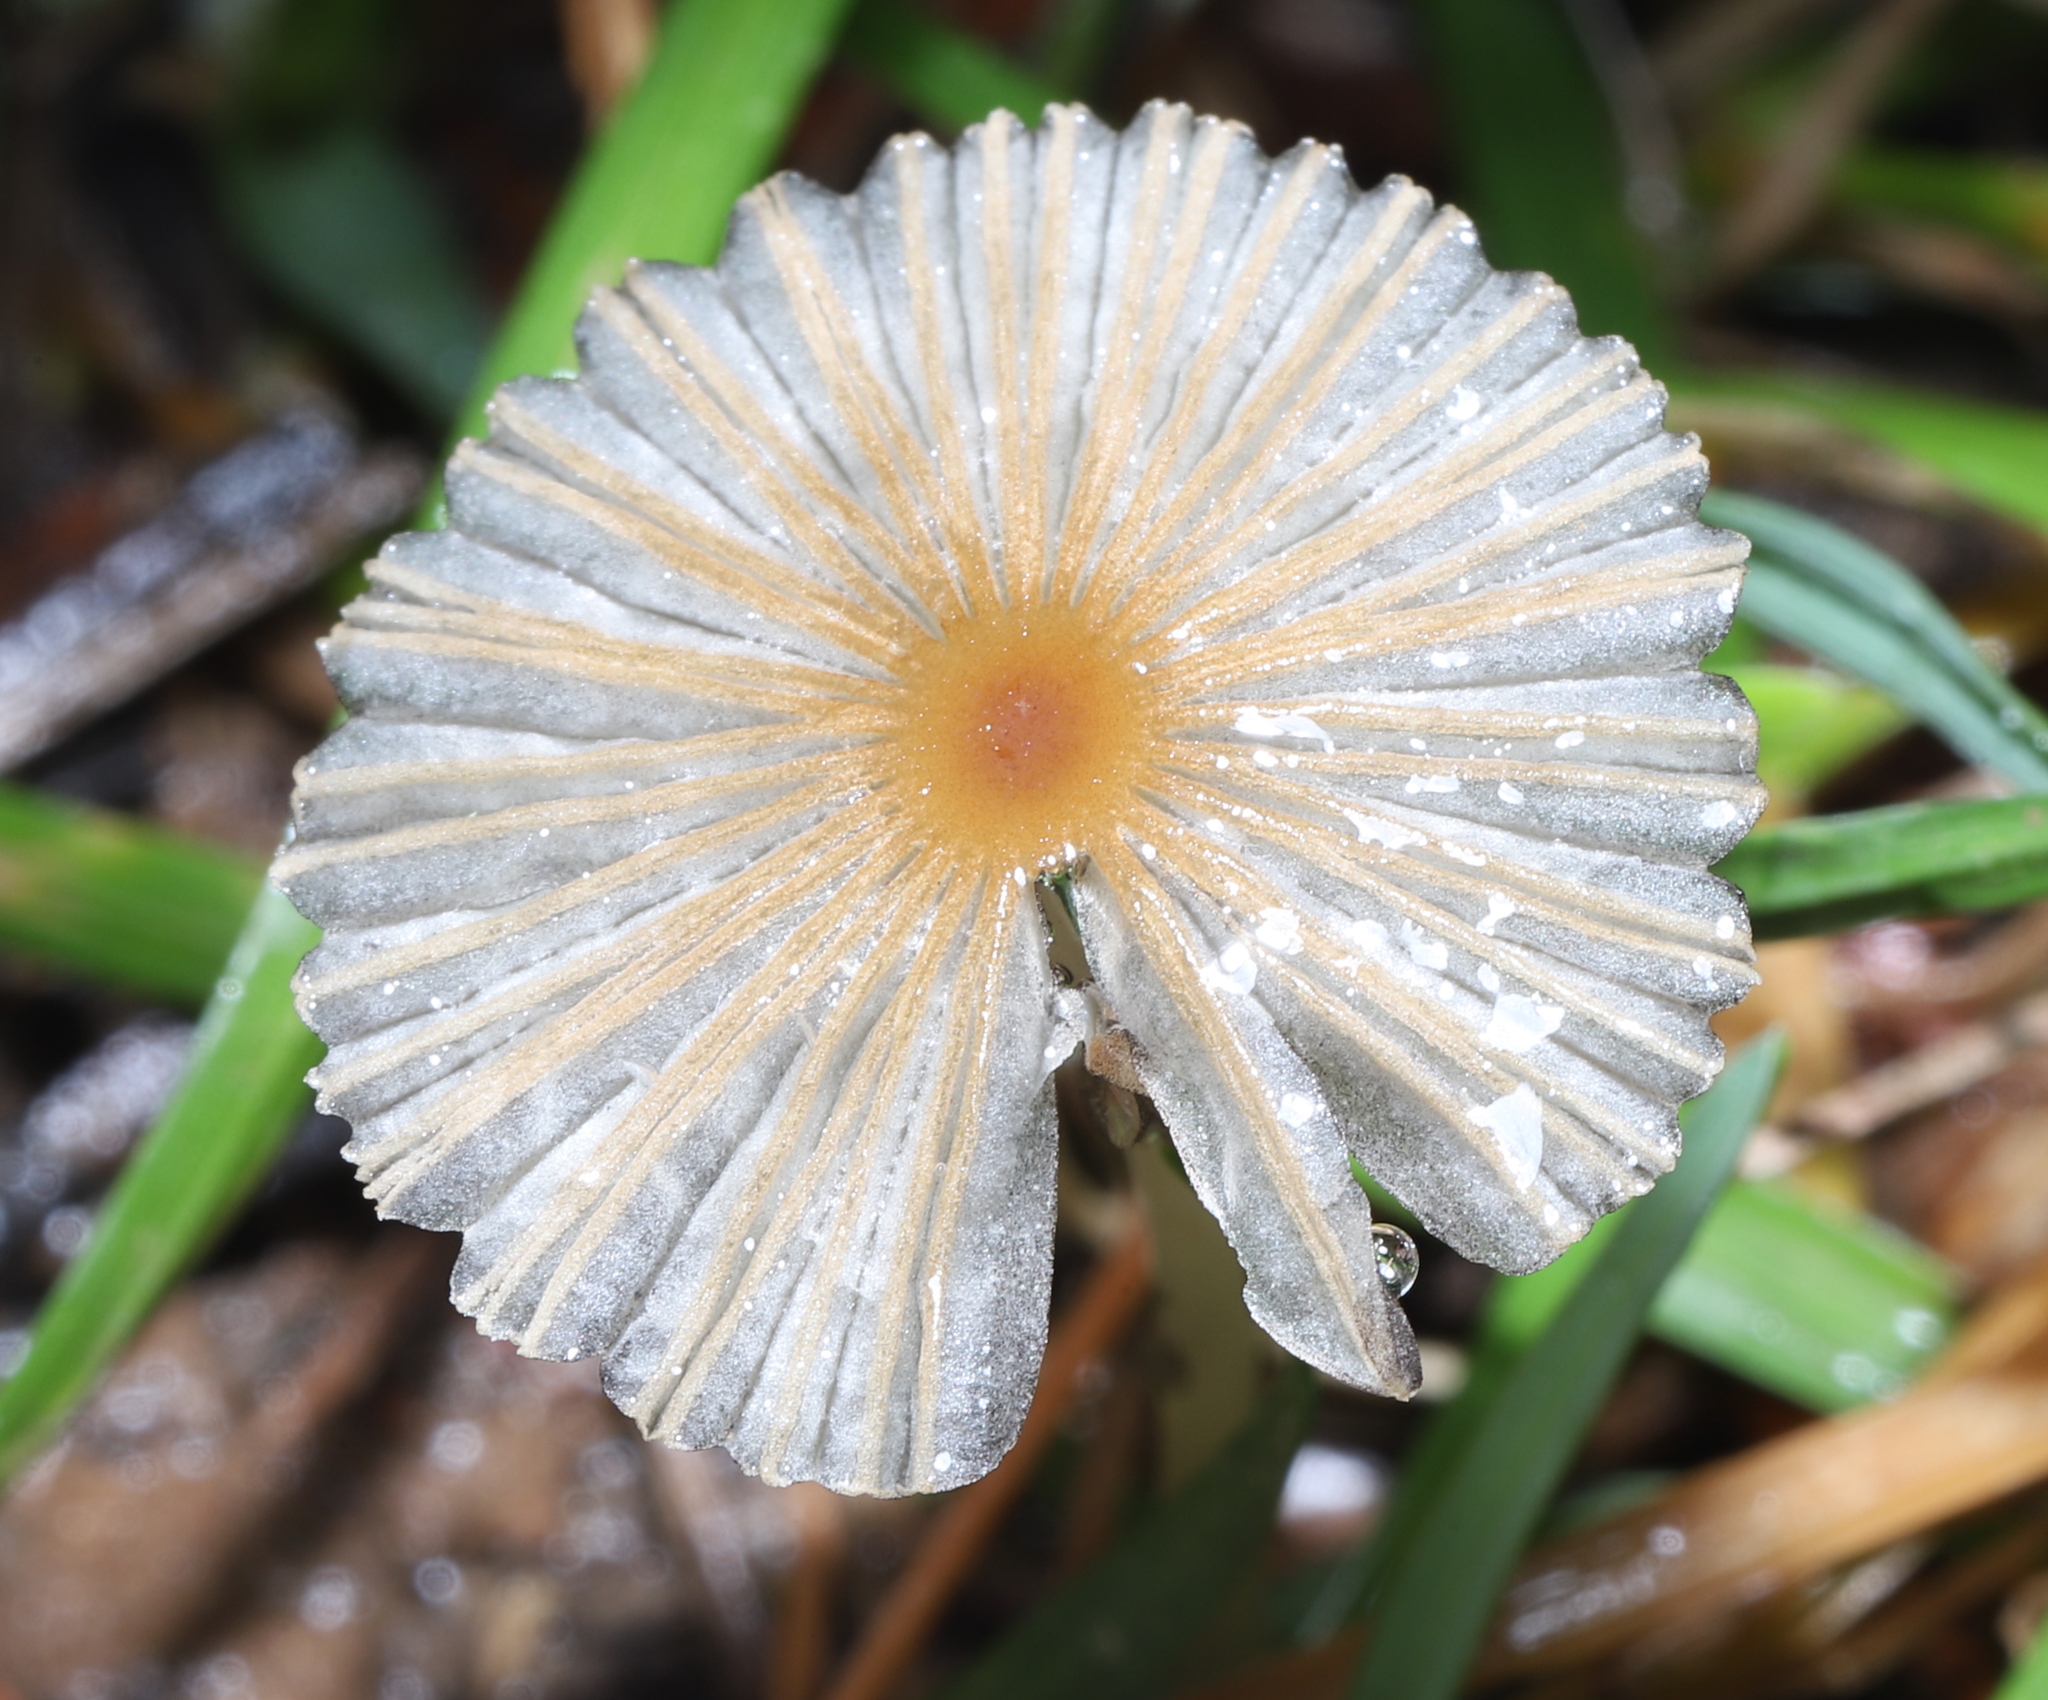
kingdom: Fungi
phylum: Basidiomycota
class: Agaricomycetes
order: Agaricales
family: Psathyrellaceae
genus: Parasola
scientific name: Parasola plicatilis
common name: Pleated inkcap
